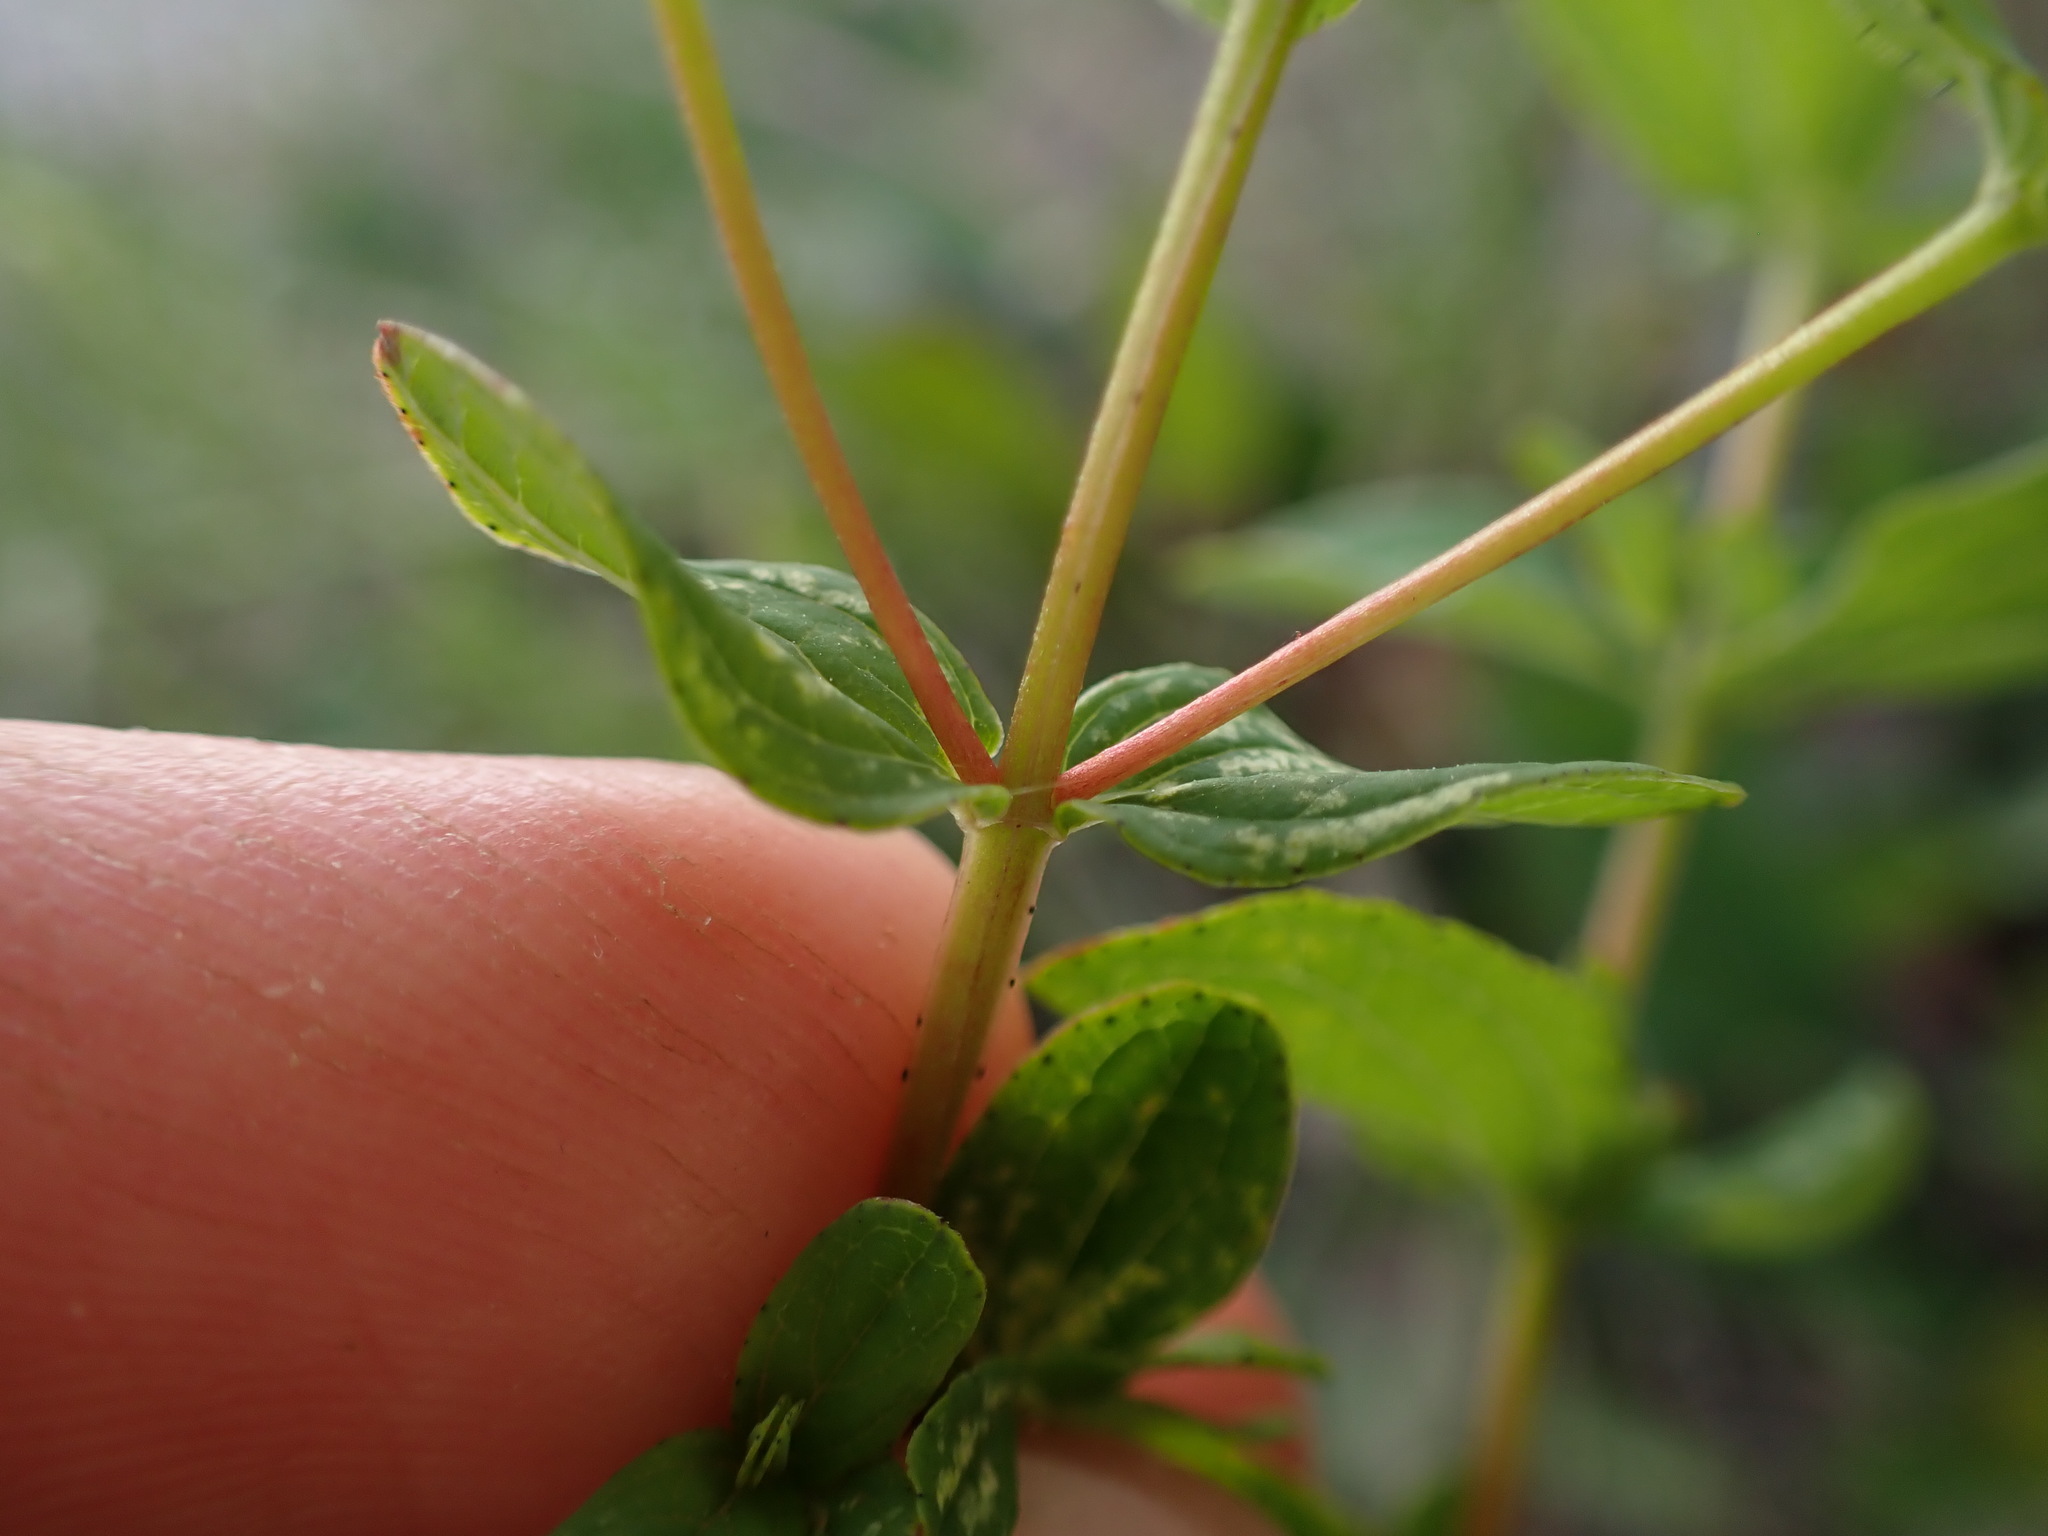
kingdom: Plantae
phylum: Tracheophyta
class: Magnoliopsida
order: Malpighiales
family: Hypericaceae
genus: Hypericum
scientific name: Hypericum maculatum
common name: Imperforate st. john's-wort
